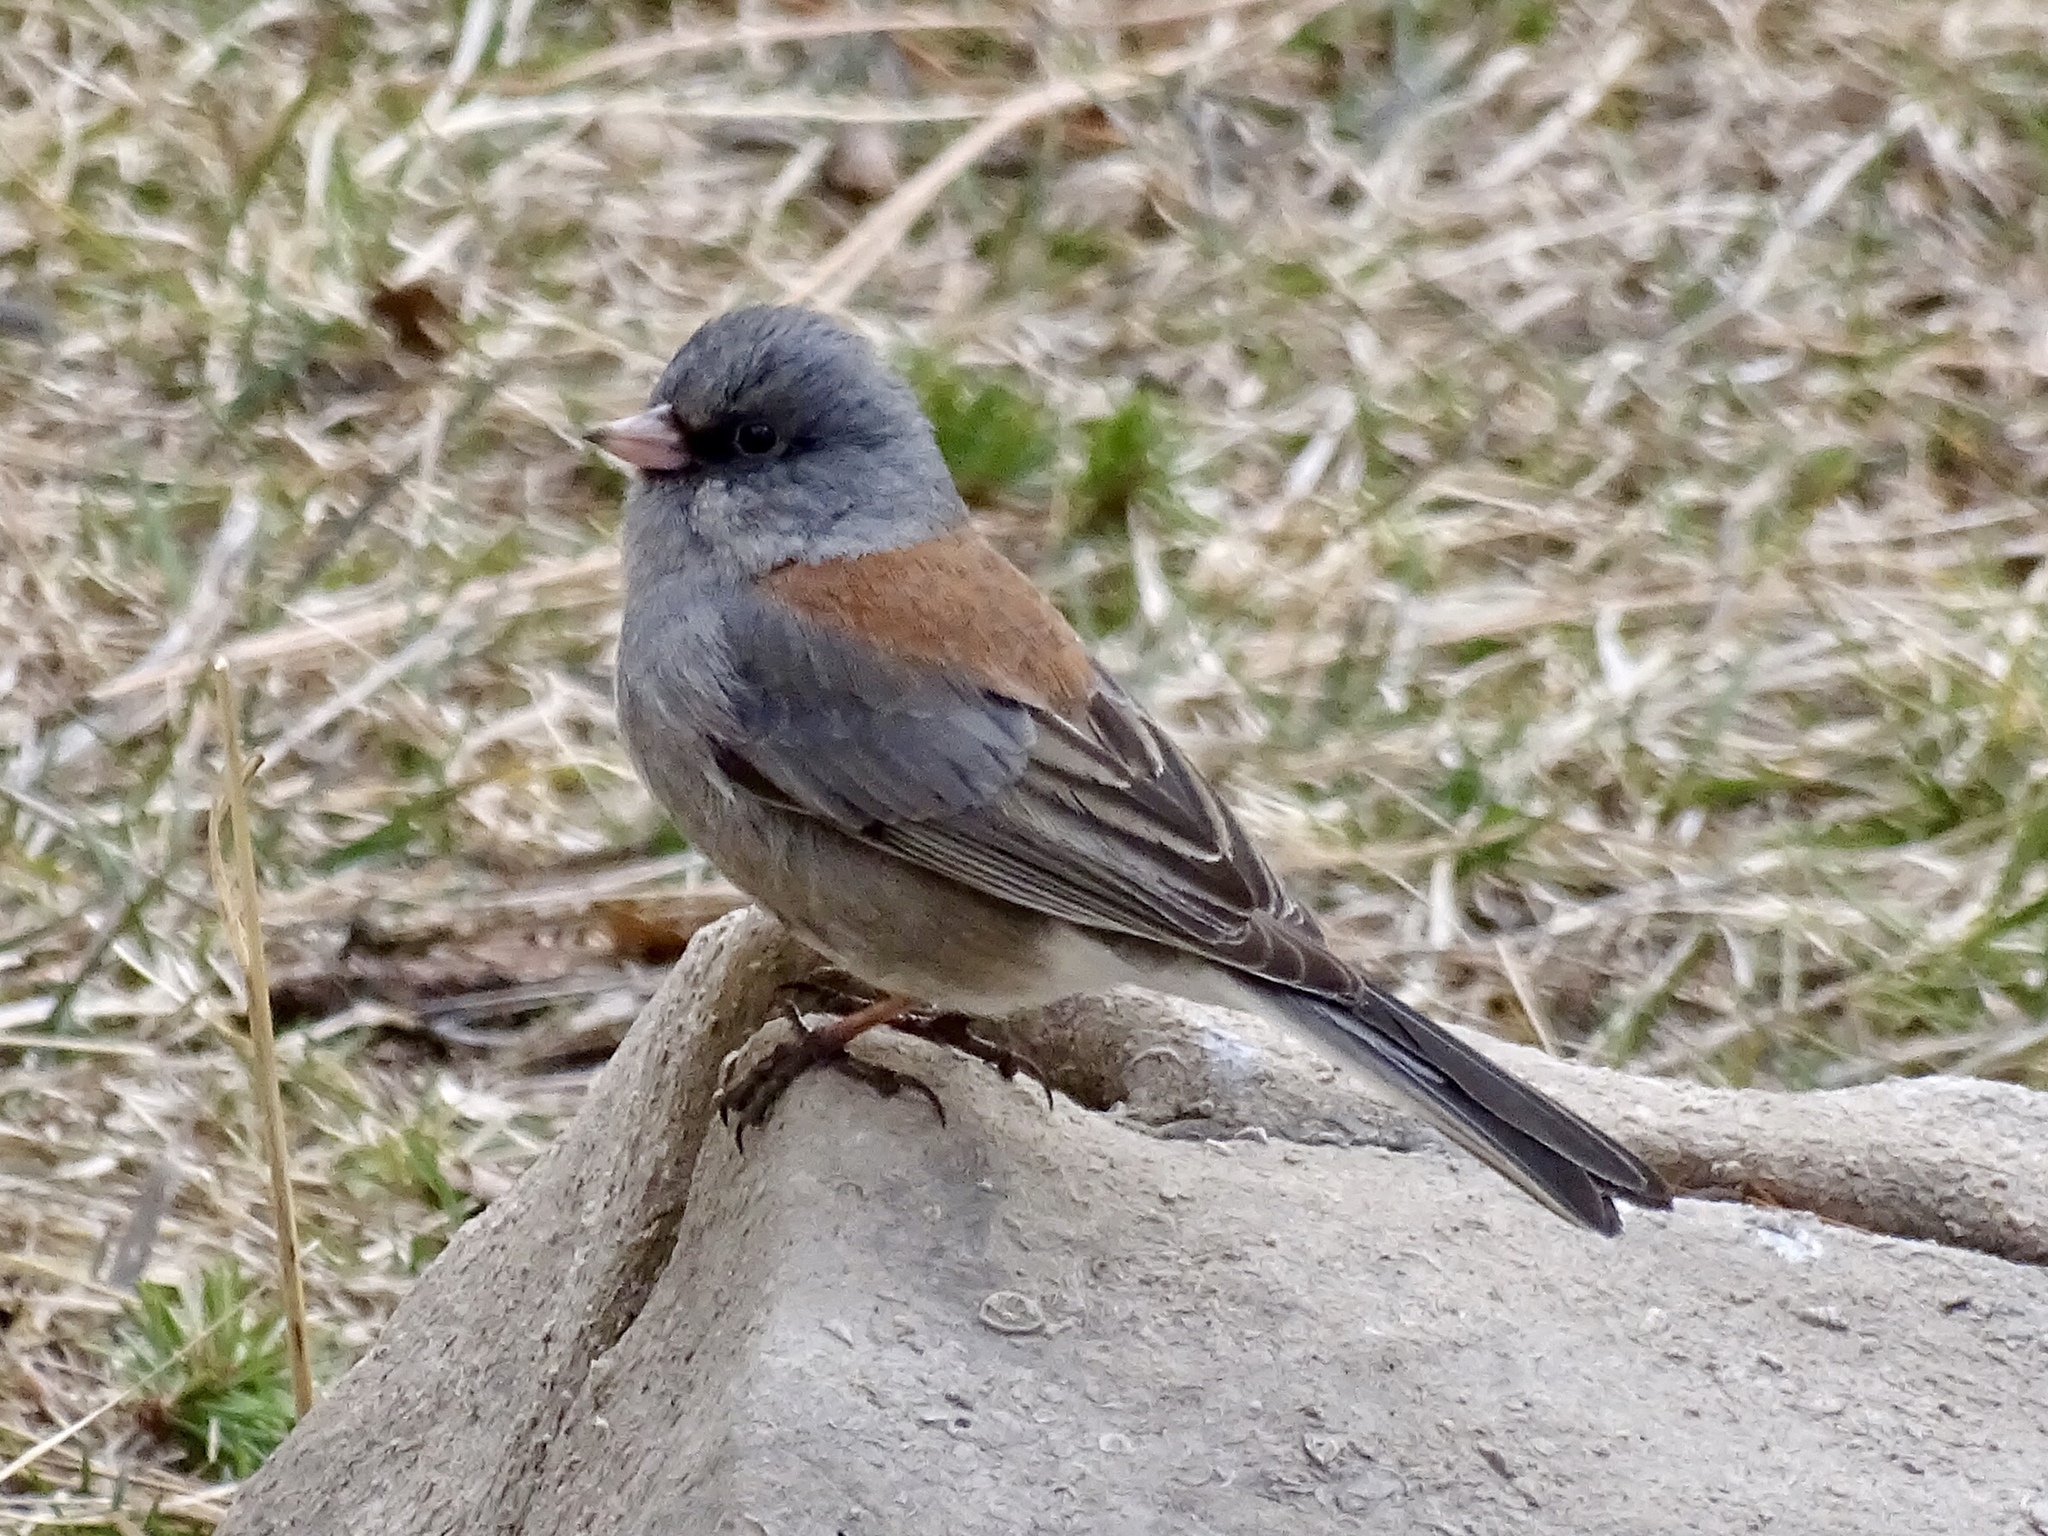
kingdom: Animalia
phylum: Chordata
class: Aves
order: Passeriformes
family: Passerellidae
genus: Junco
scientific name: Junco hyemalis
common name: Dark-eyed junco
